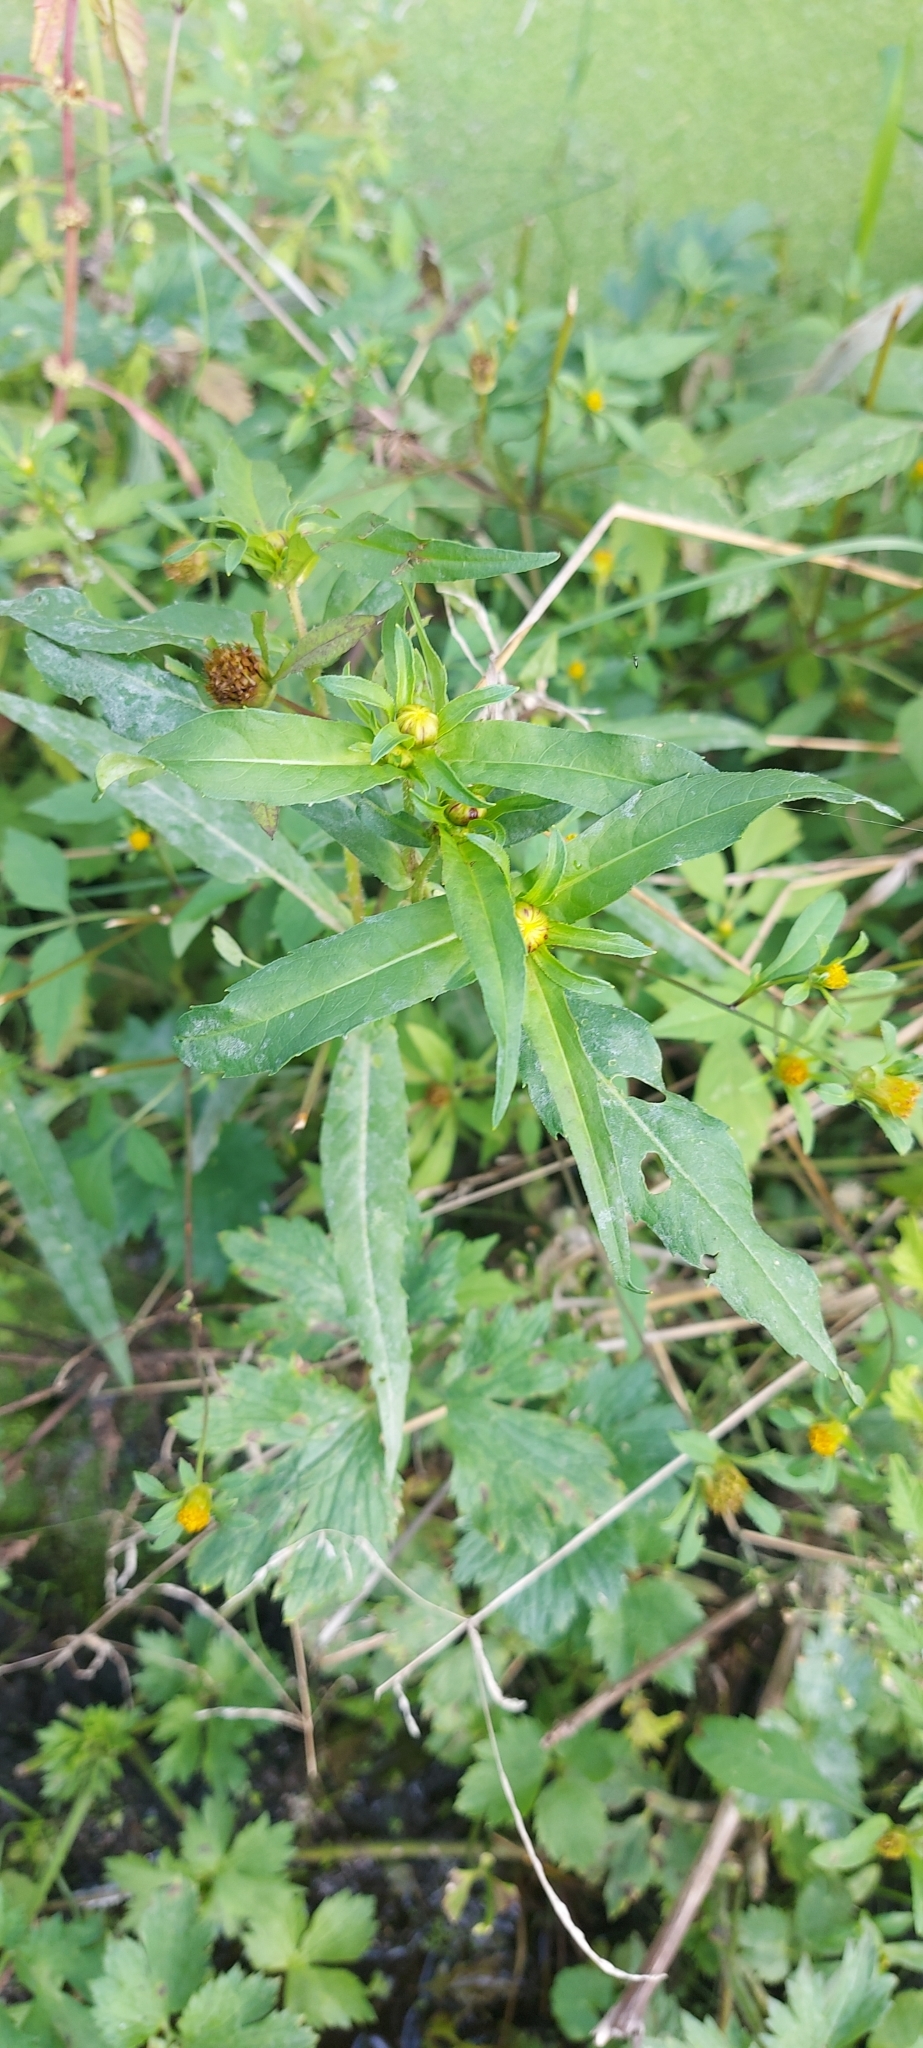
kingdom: Plantae
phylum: Tracheophyta
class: Magnoliopsida
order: Asterales
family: Asteraceae
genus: Bidens
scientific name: Bidens cernua
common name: Nodding bur-marigold
